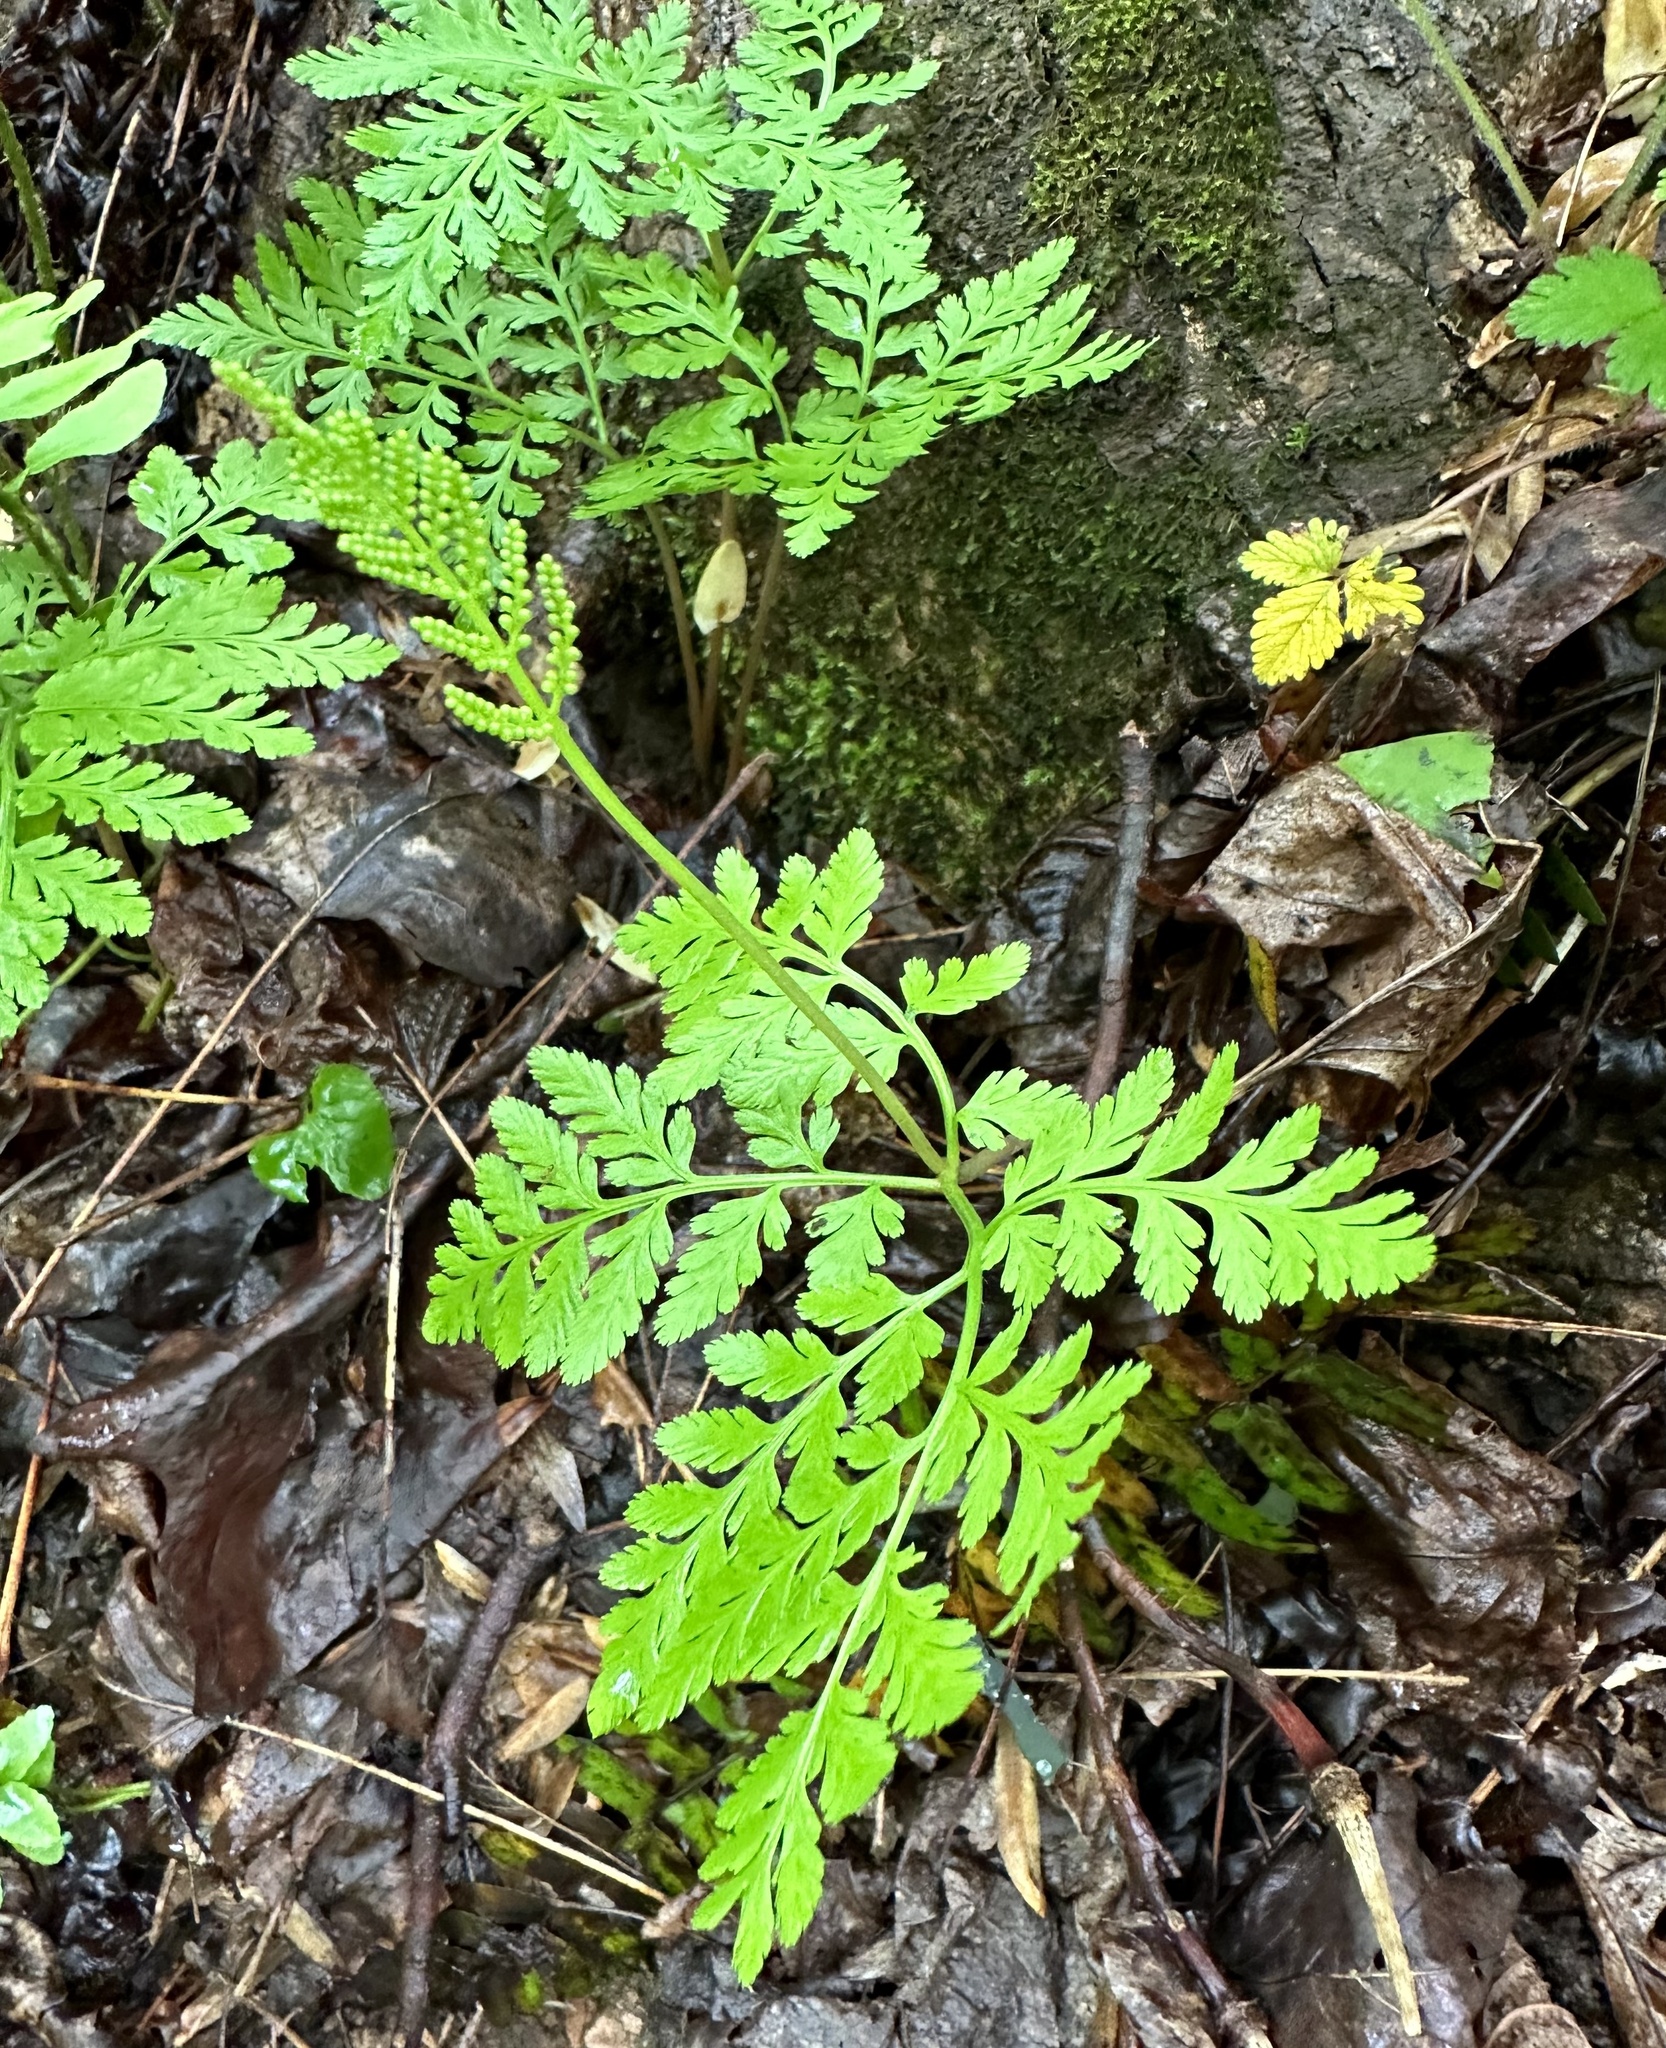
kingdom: Plantae
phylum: Tracheophyta
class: Polypodiopsida
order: Ophioglossales
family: Ophioglossaceae
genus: Botrypus
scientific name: Botrypus virginianus
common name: Common grapefern
